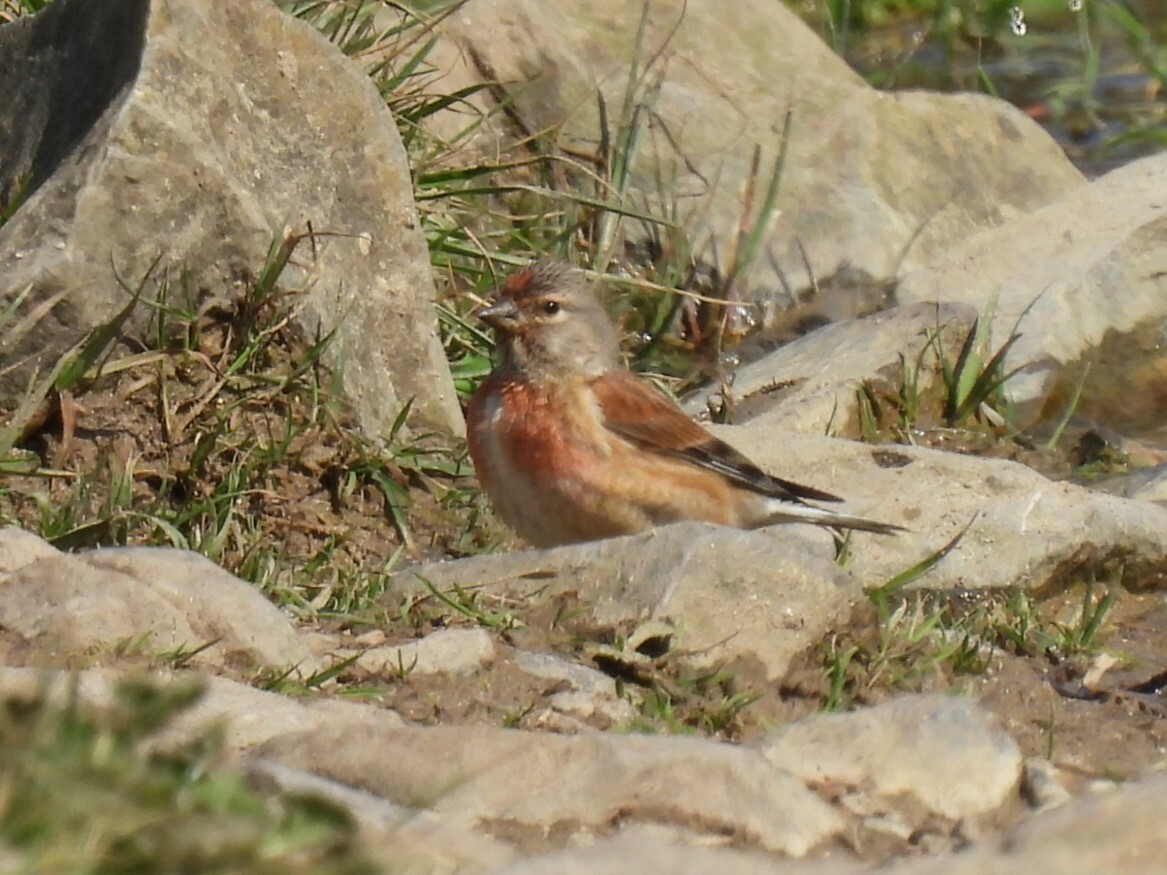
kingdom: Animalia
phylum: Chordata
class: Aves
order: Passeriformes
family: Fringillidae
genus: Linaria
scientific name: Linaria cannabina
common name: Common linnet
